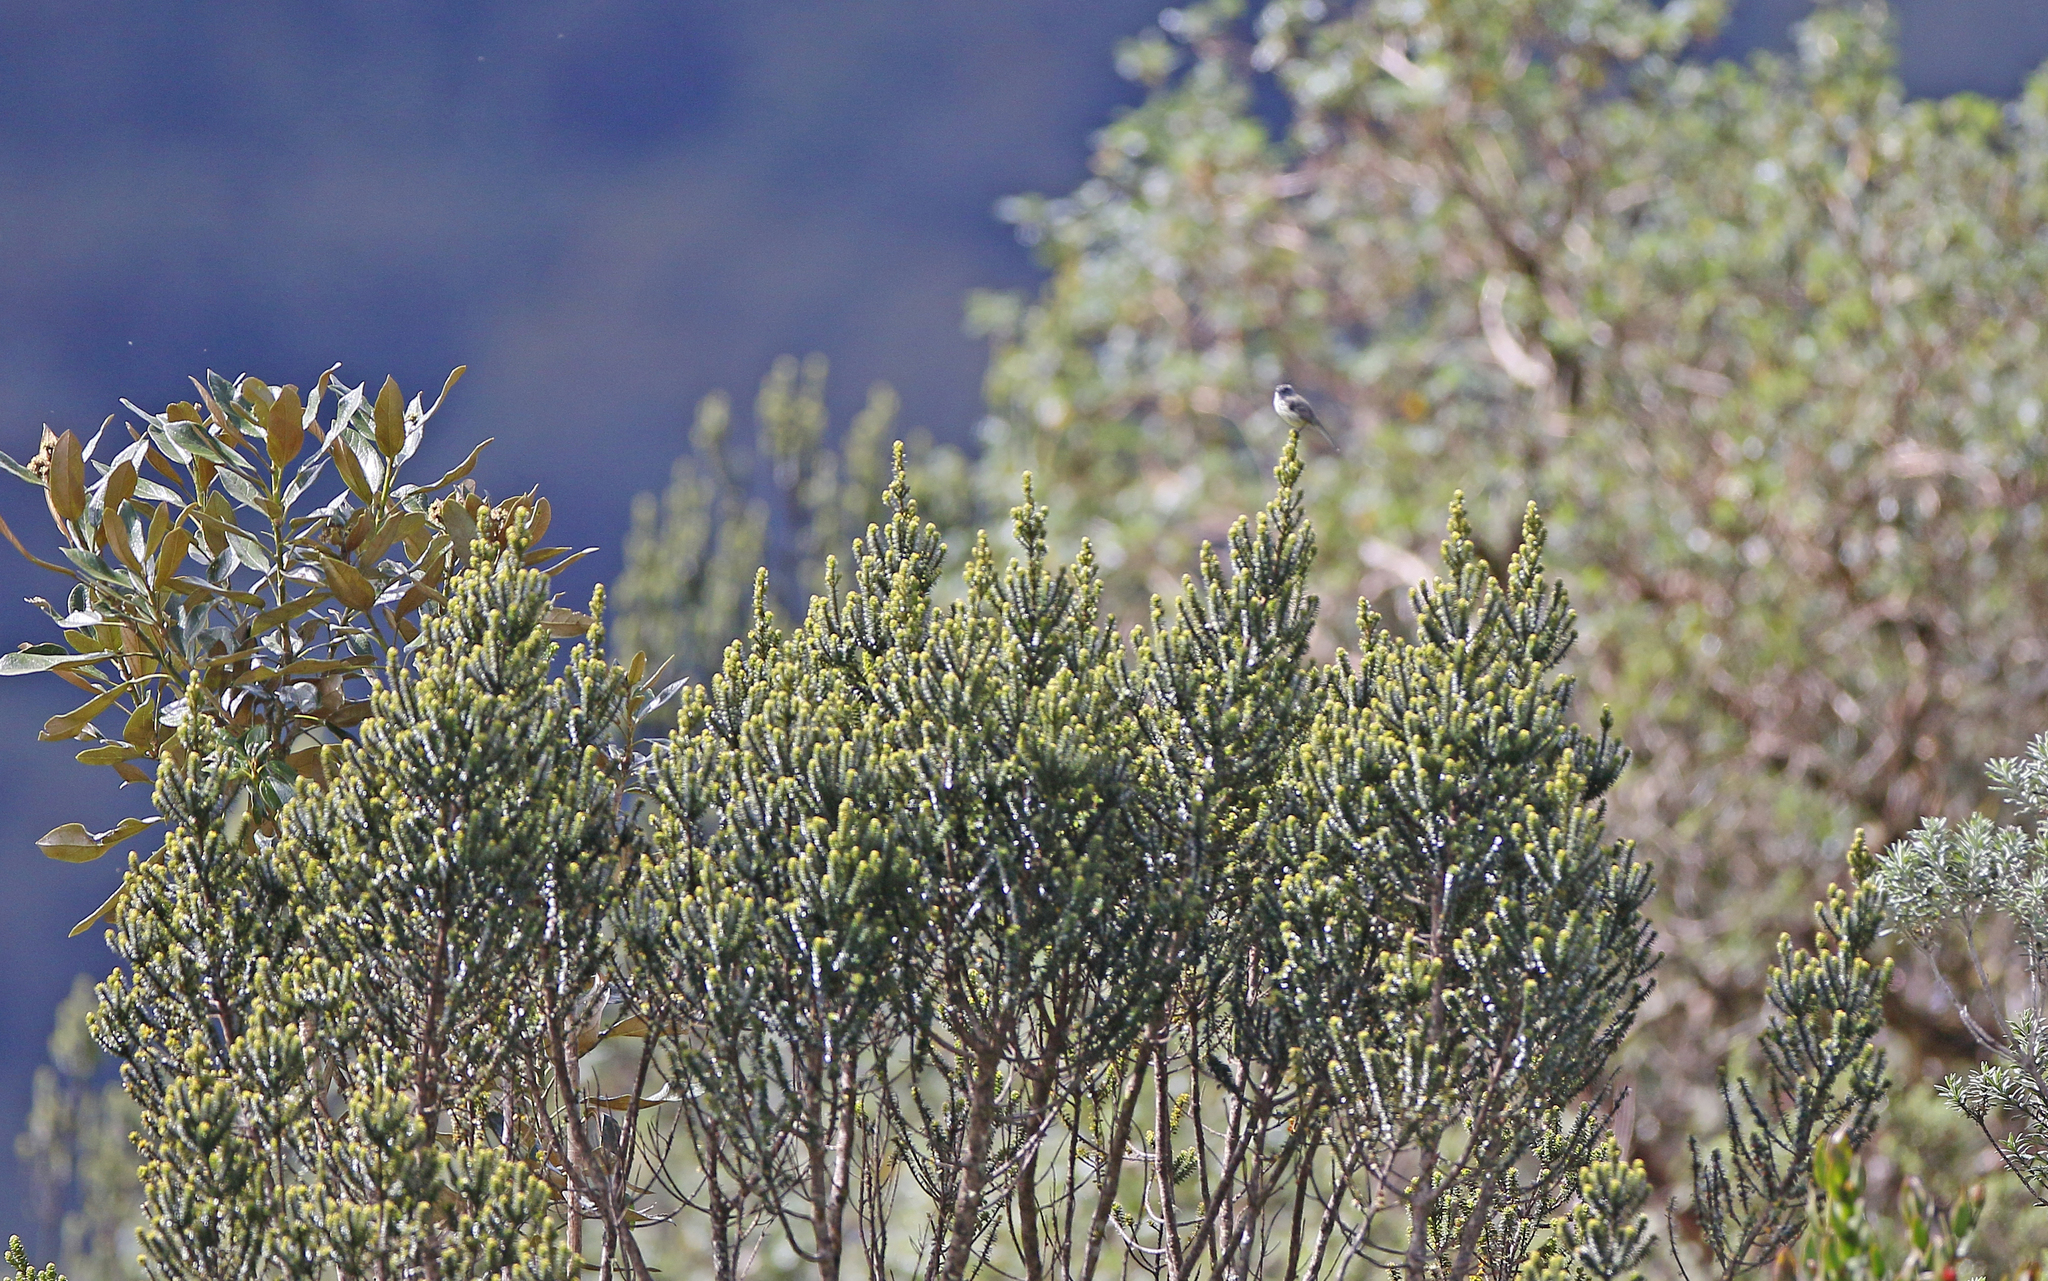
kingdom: Animalia
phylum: Chordata
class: Aves
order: Passeriformes
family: Tyrannidae
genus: Anairetes
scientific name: Anairetes parulus
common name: Tufted tit-tyrant
